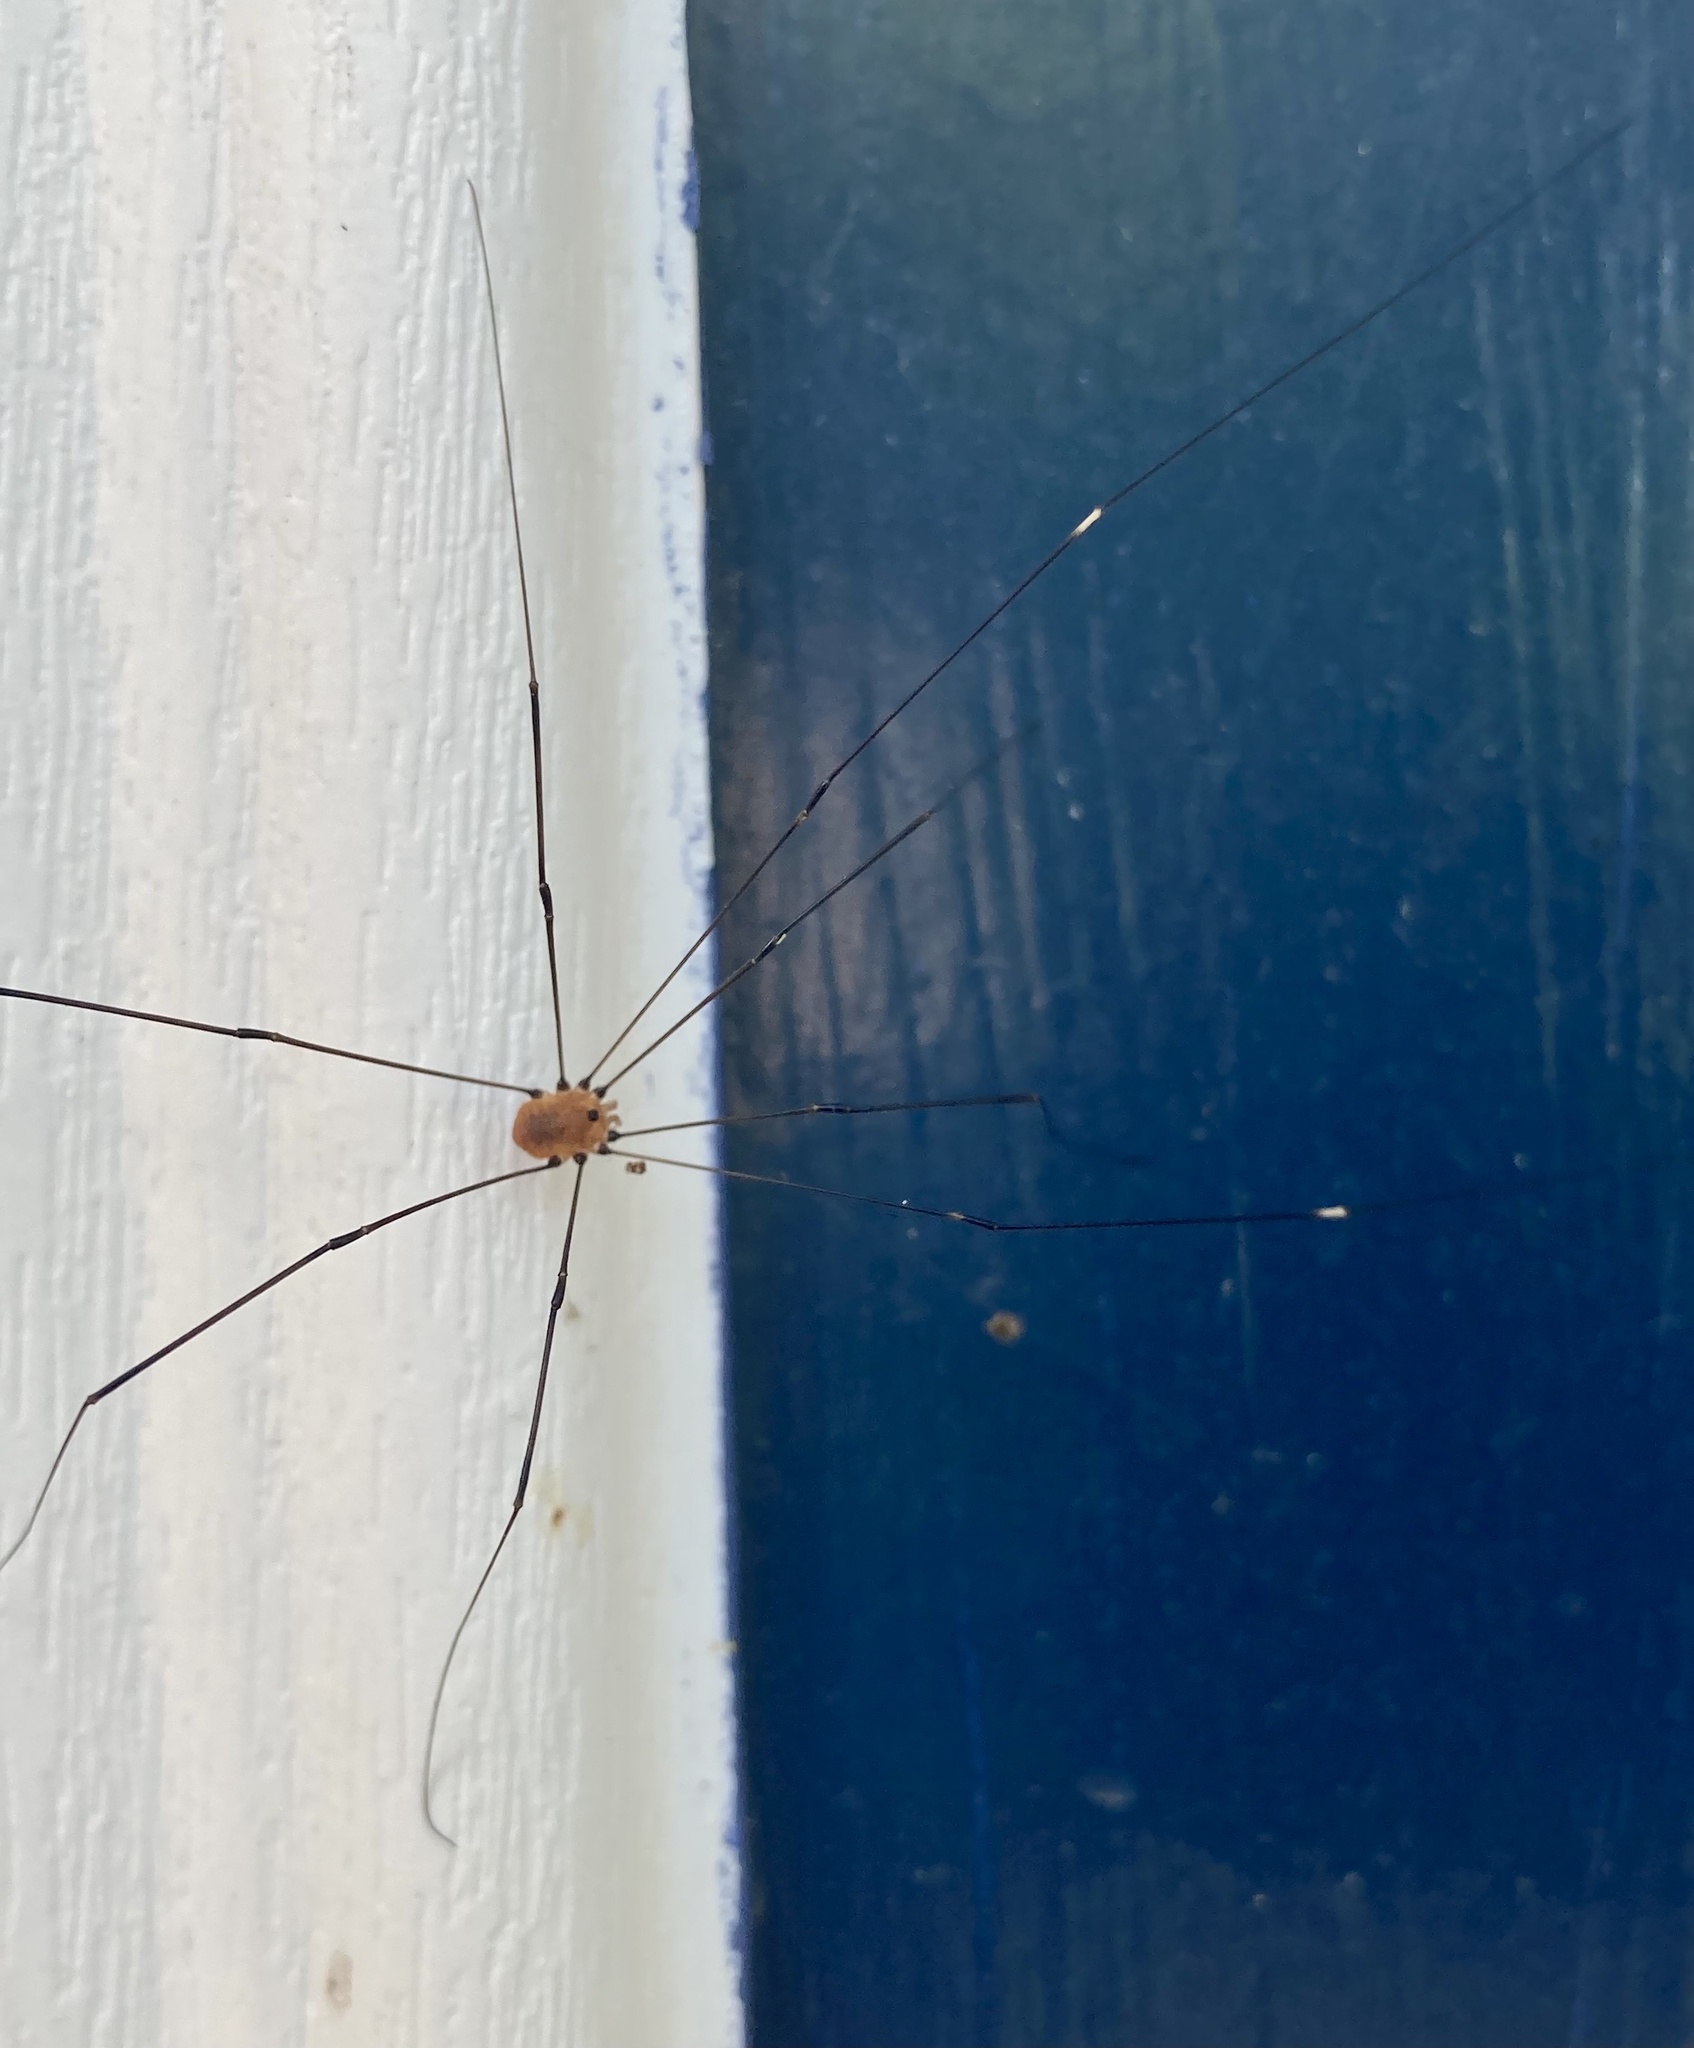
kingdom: Animalia
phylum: Arthropoda
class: Arachnida
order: Opiliones
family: Sclerosomatidae
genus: Leiobunum
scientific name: Leiobunum aldrichi
